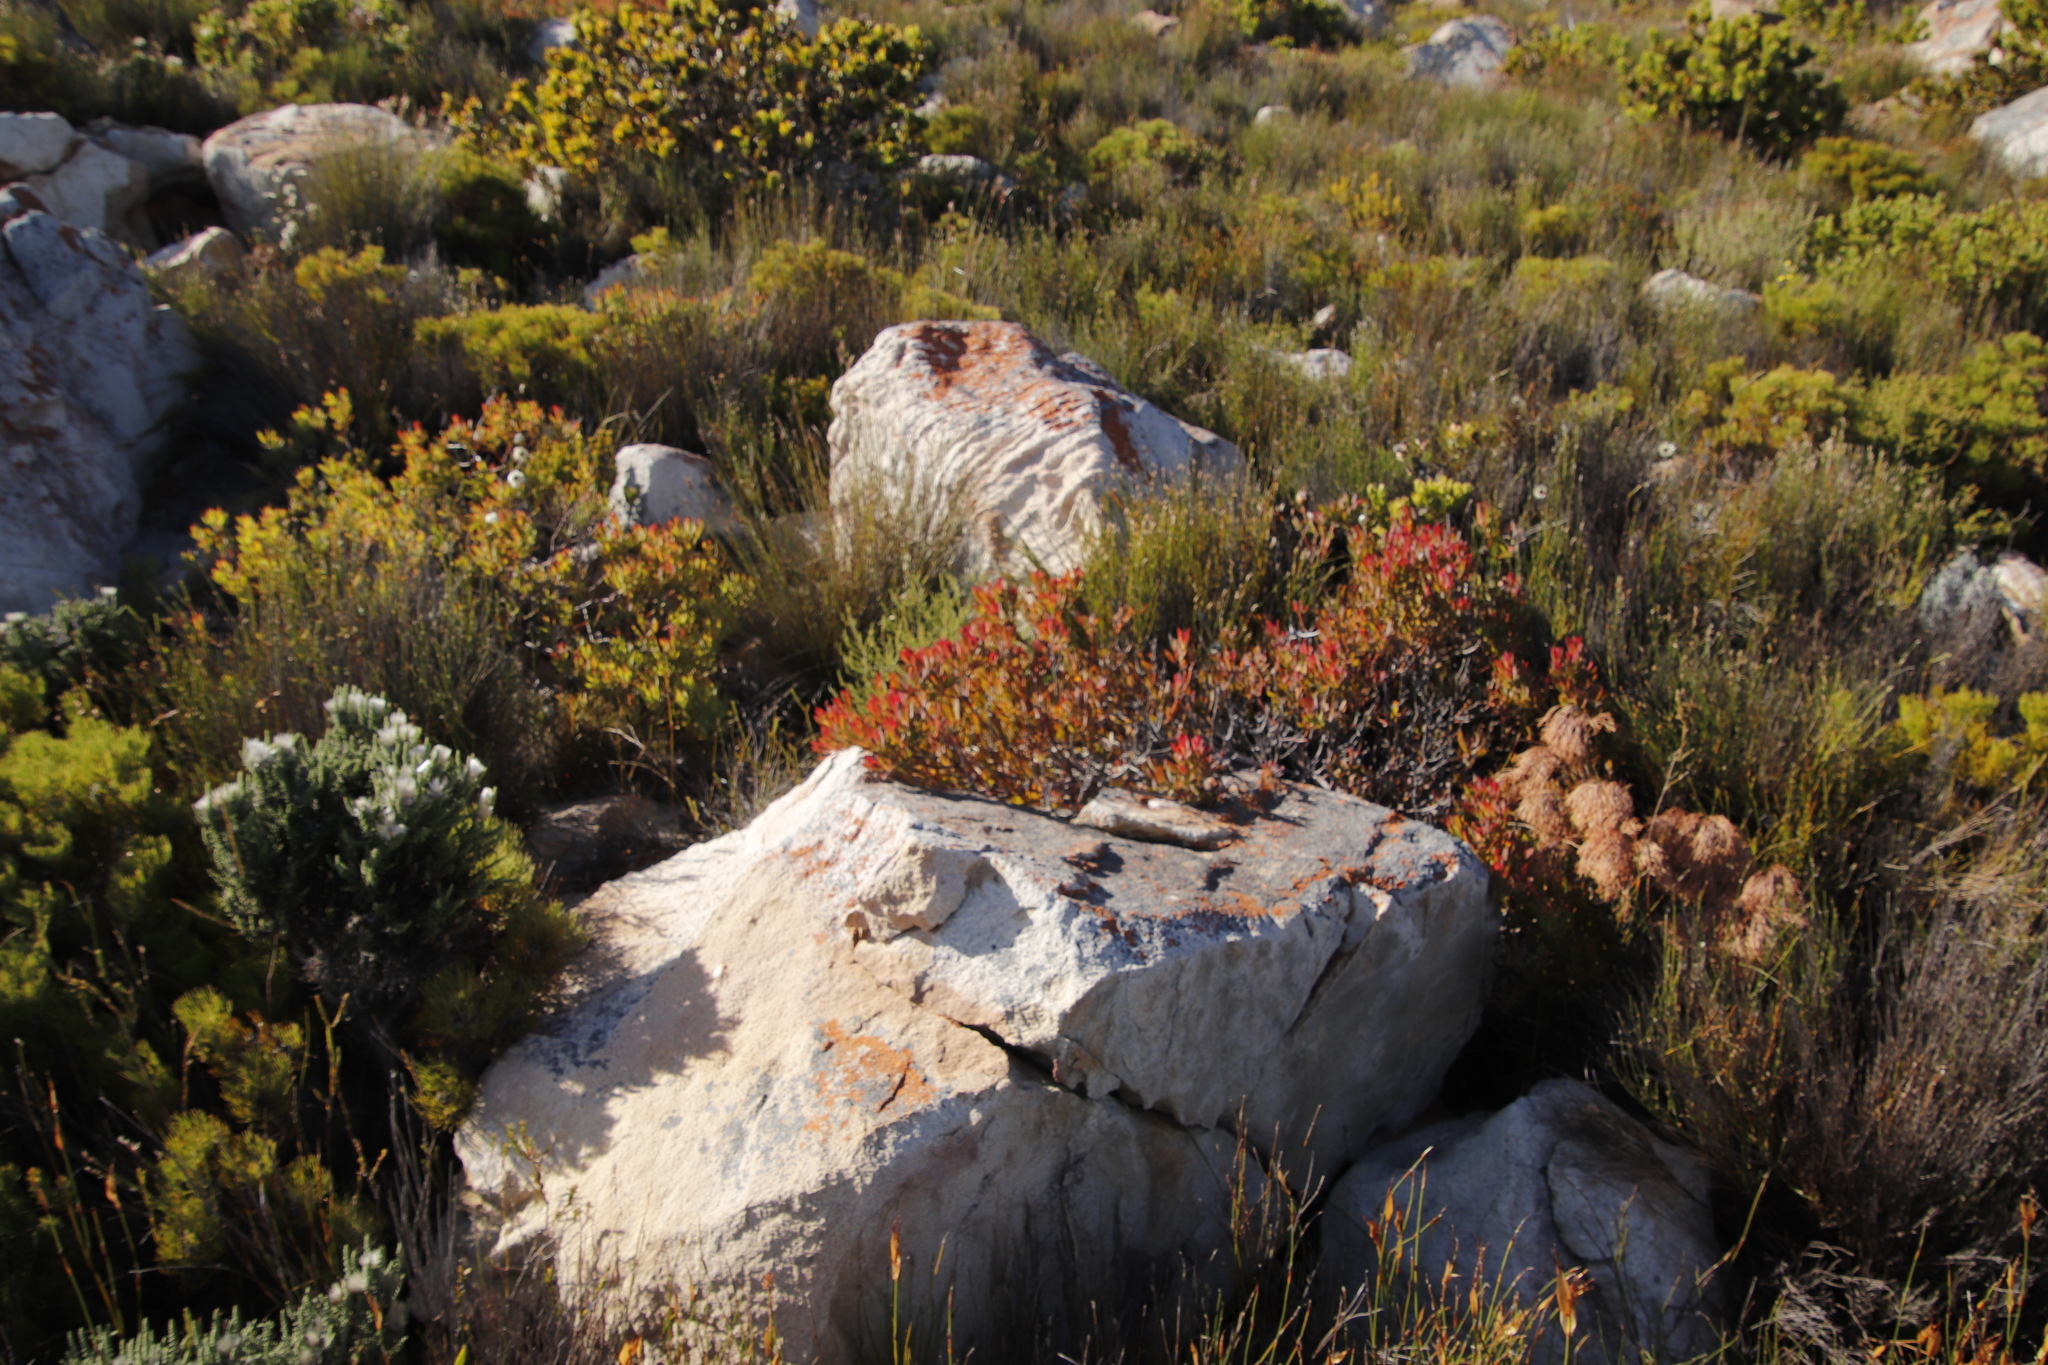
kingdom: Plantae
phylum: Tracheophyta
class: Magnoliopsida
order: Proteales
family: Proteaceae
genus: Leucadendron
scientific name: Leucadendron salignum
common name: Common sunshine conebush
